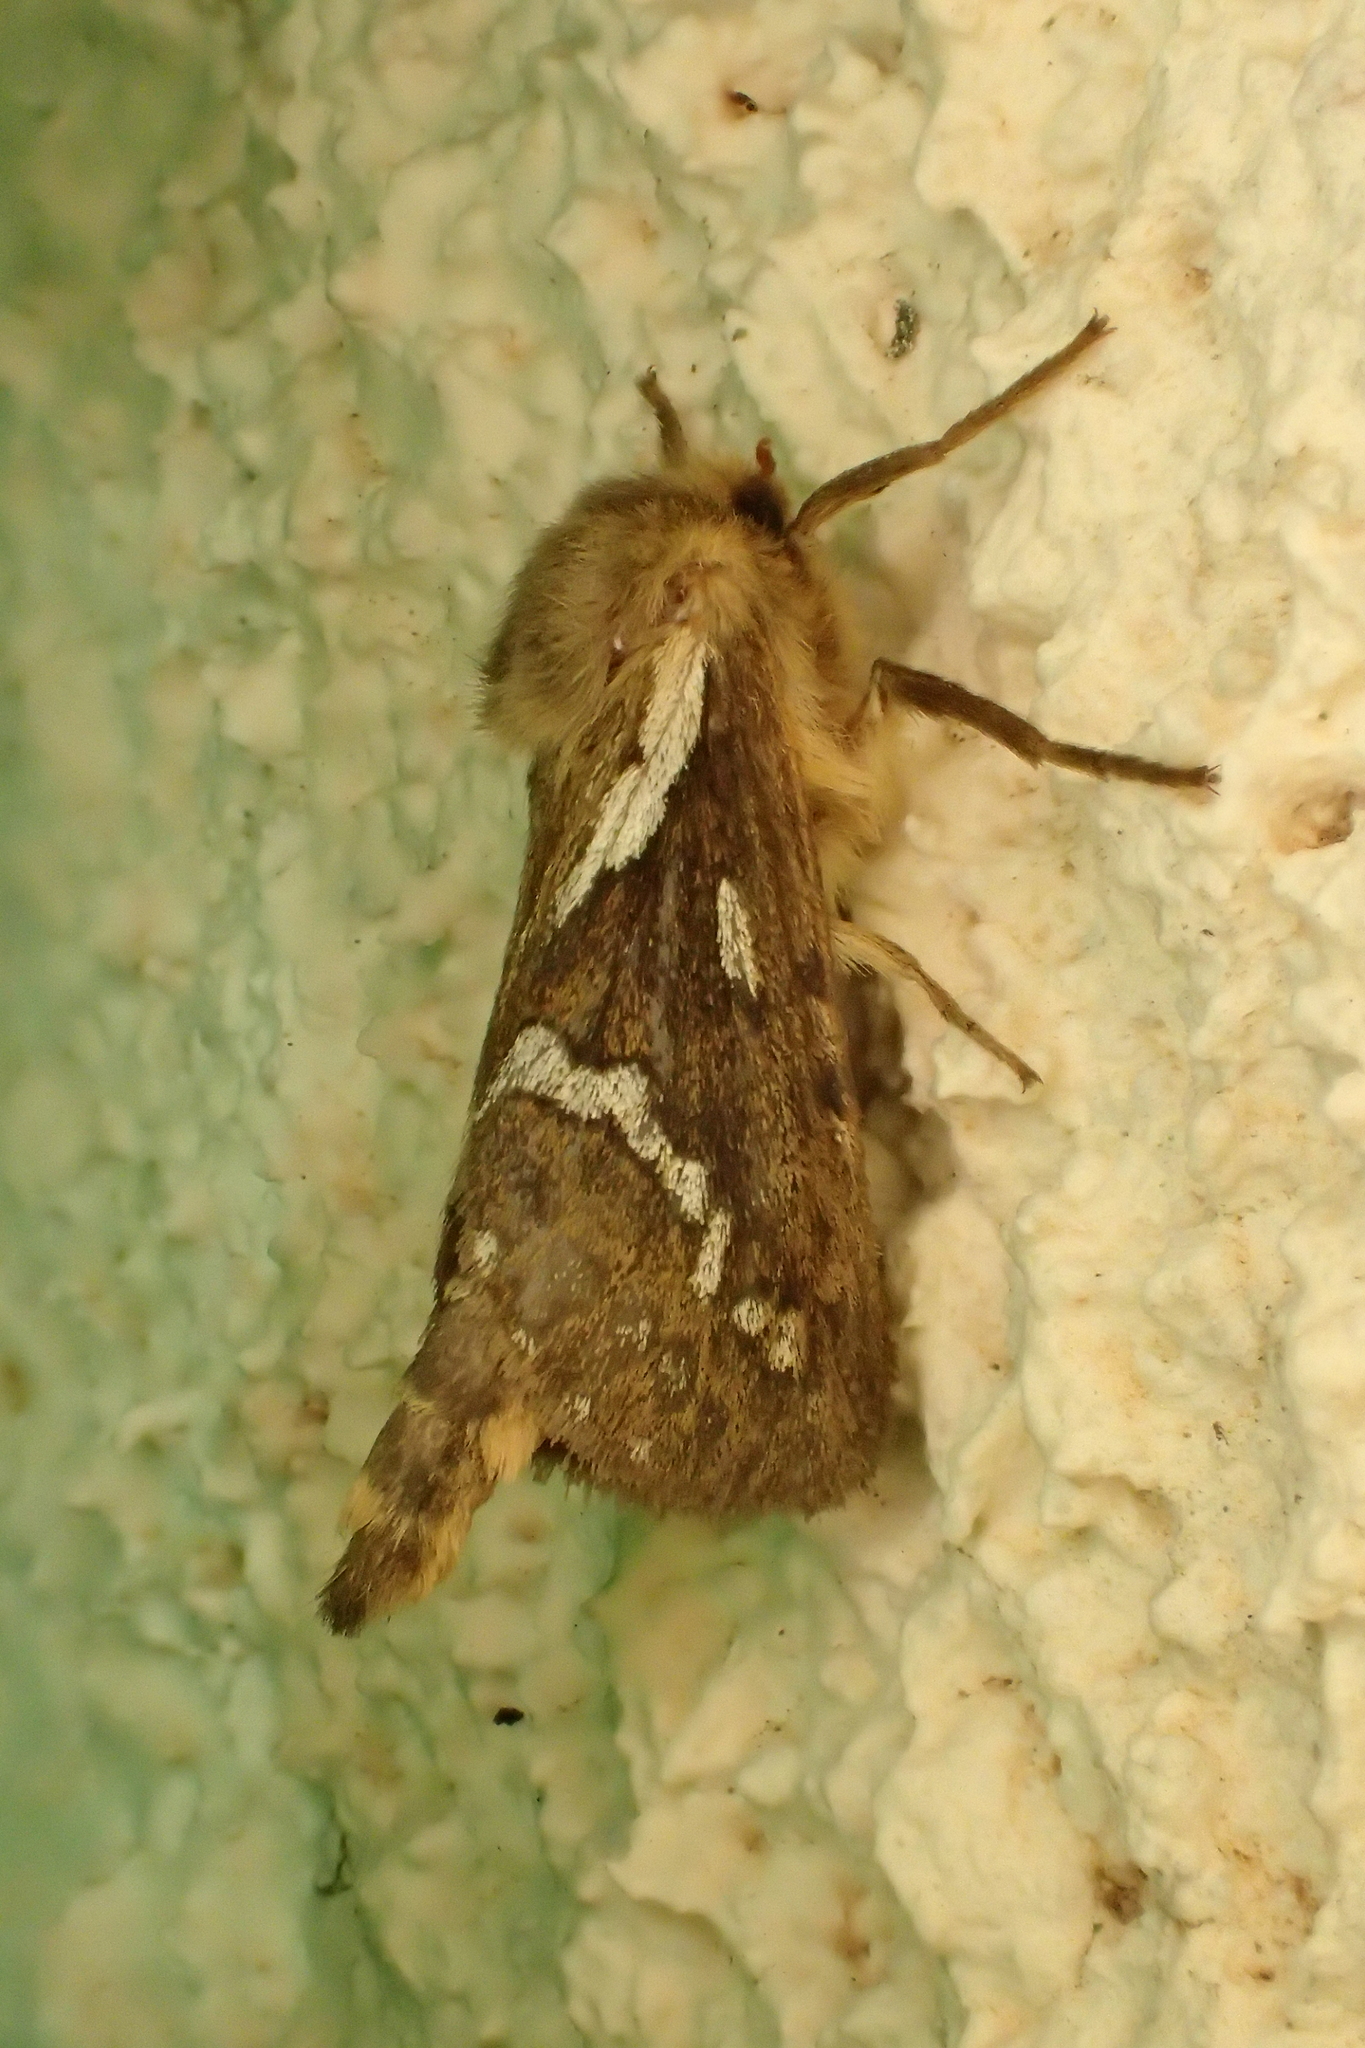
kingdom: Animalia
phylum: Arthropoda
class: Insecta
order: Lepidoptera
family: Hepialidae
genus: Korscheltellus
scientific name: Korscheltellus lupulina
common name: Common swift
